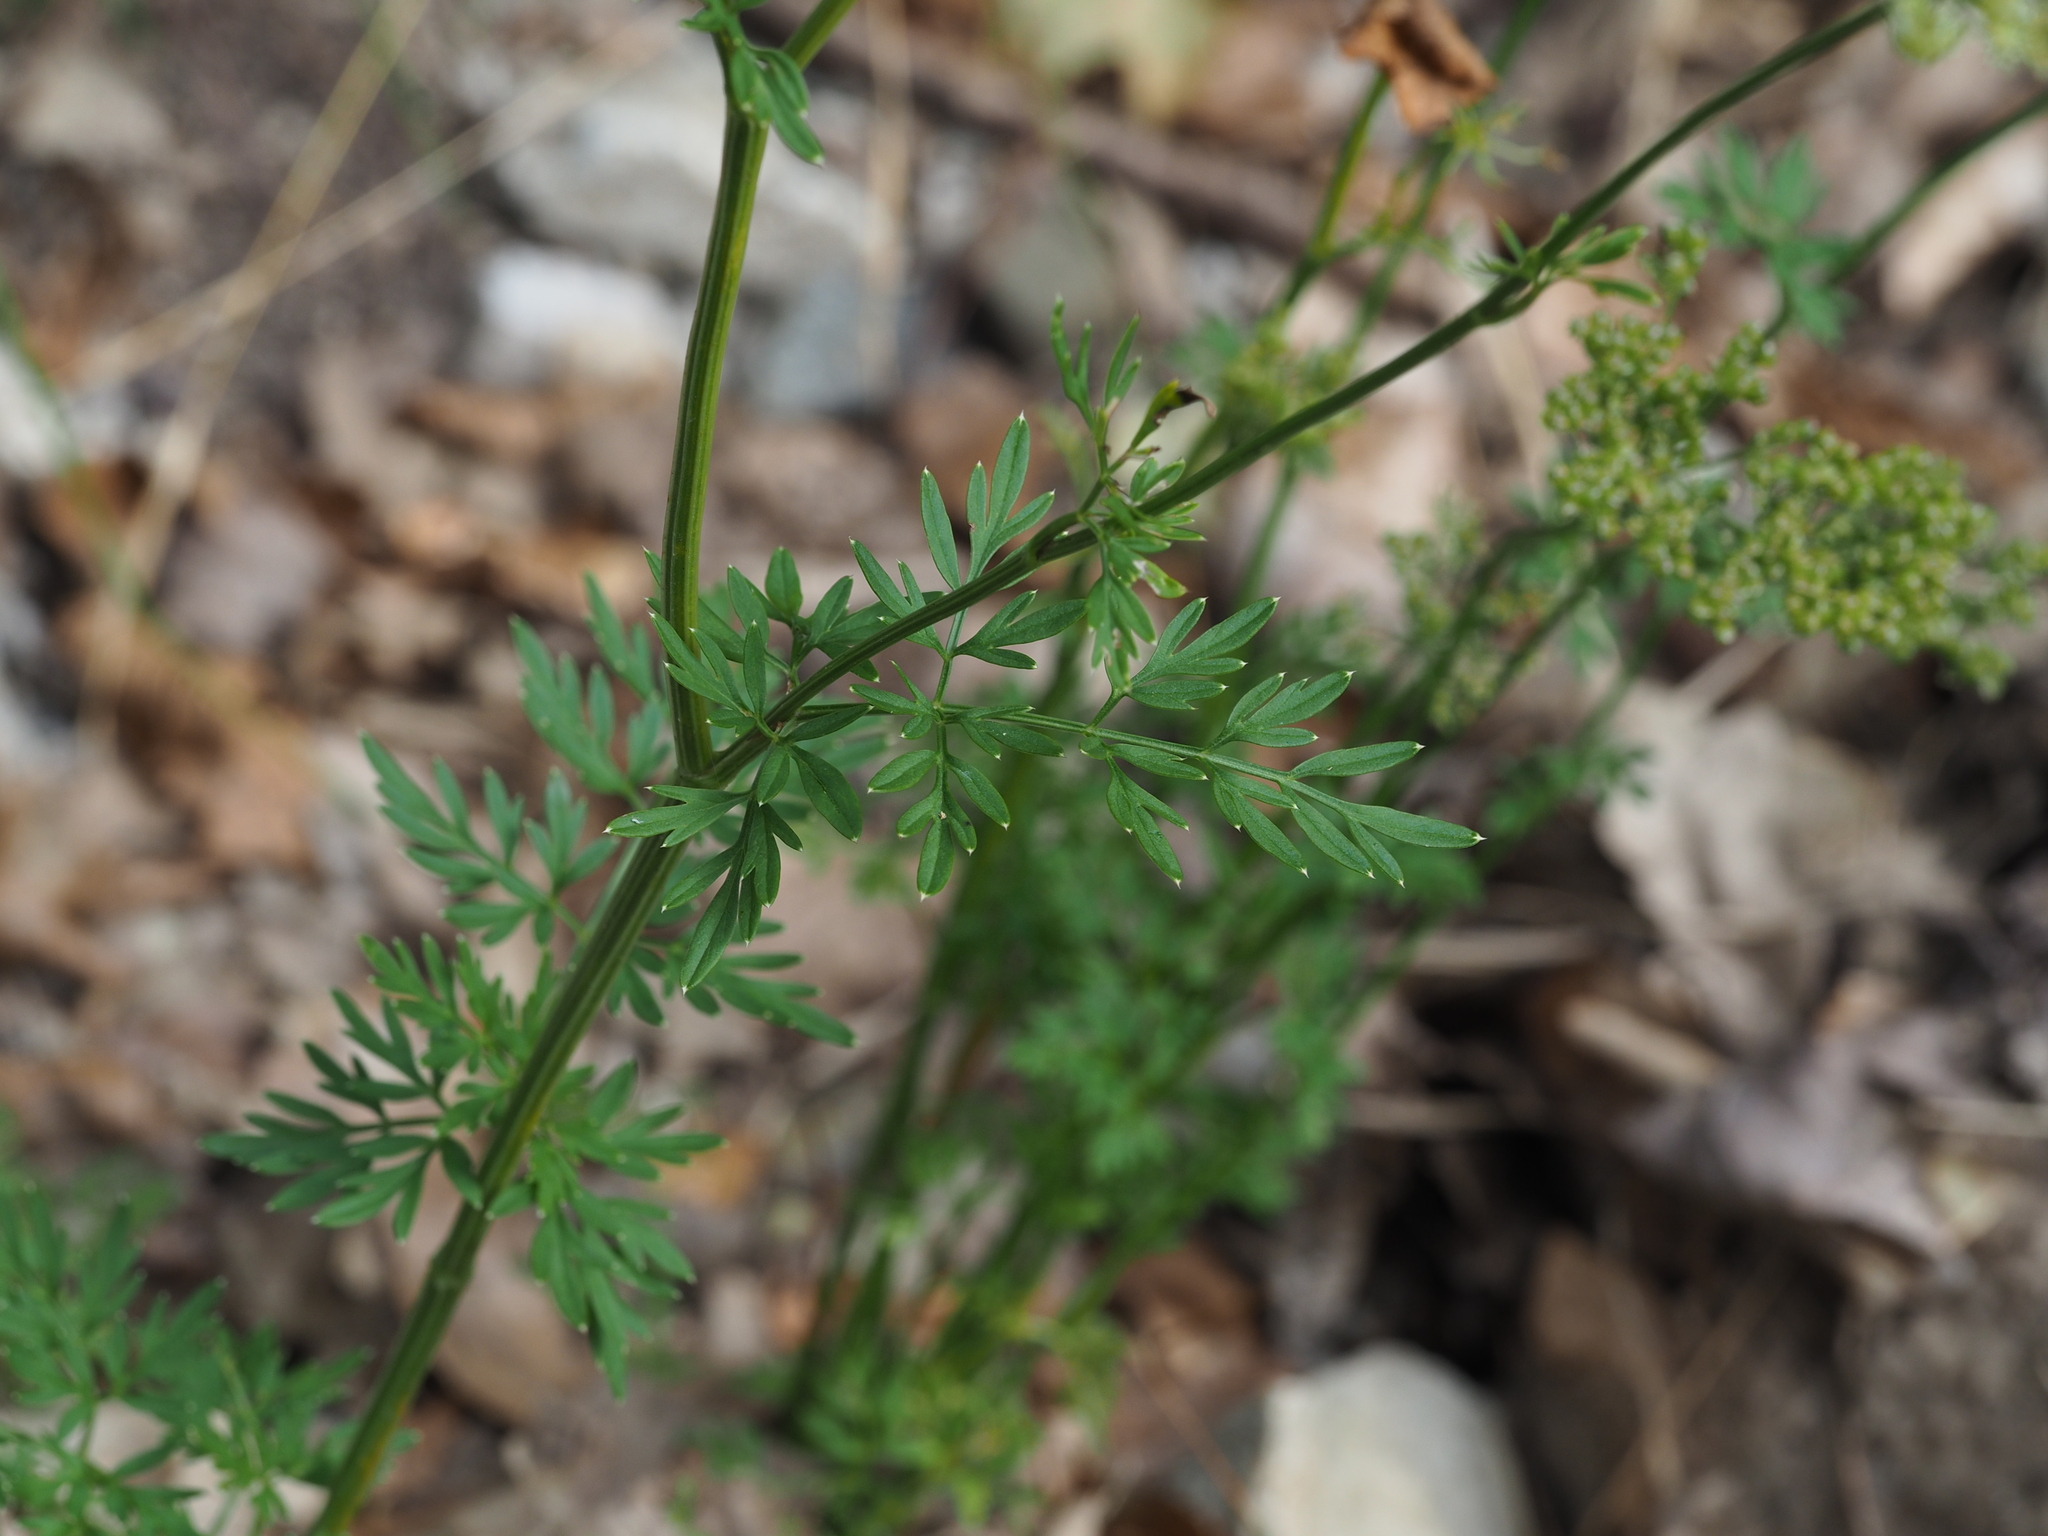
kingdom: Plantae
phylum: Tracheophyta
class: Magnoliopsida
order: Apiales
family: Apiaceae
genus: Selinum
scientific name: Selinum carvifolia
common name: Cambridge milk-parsley
